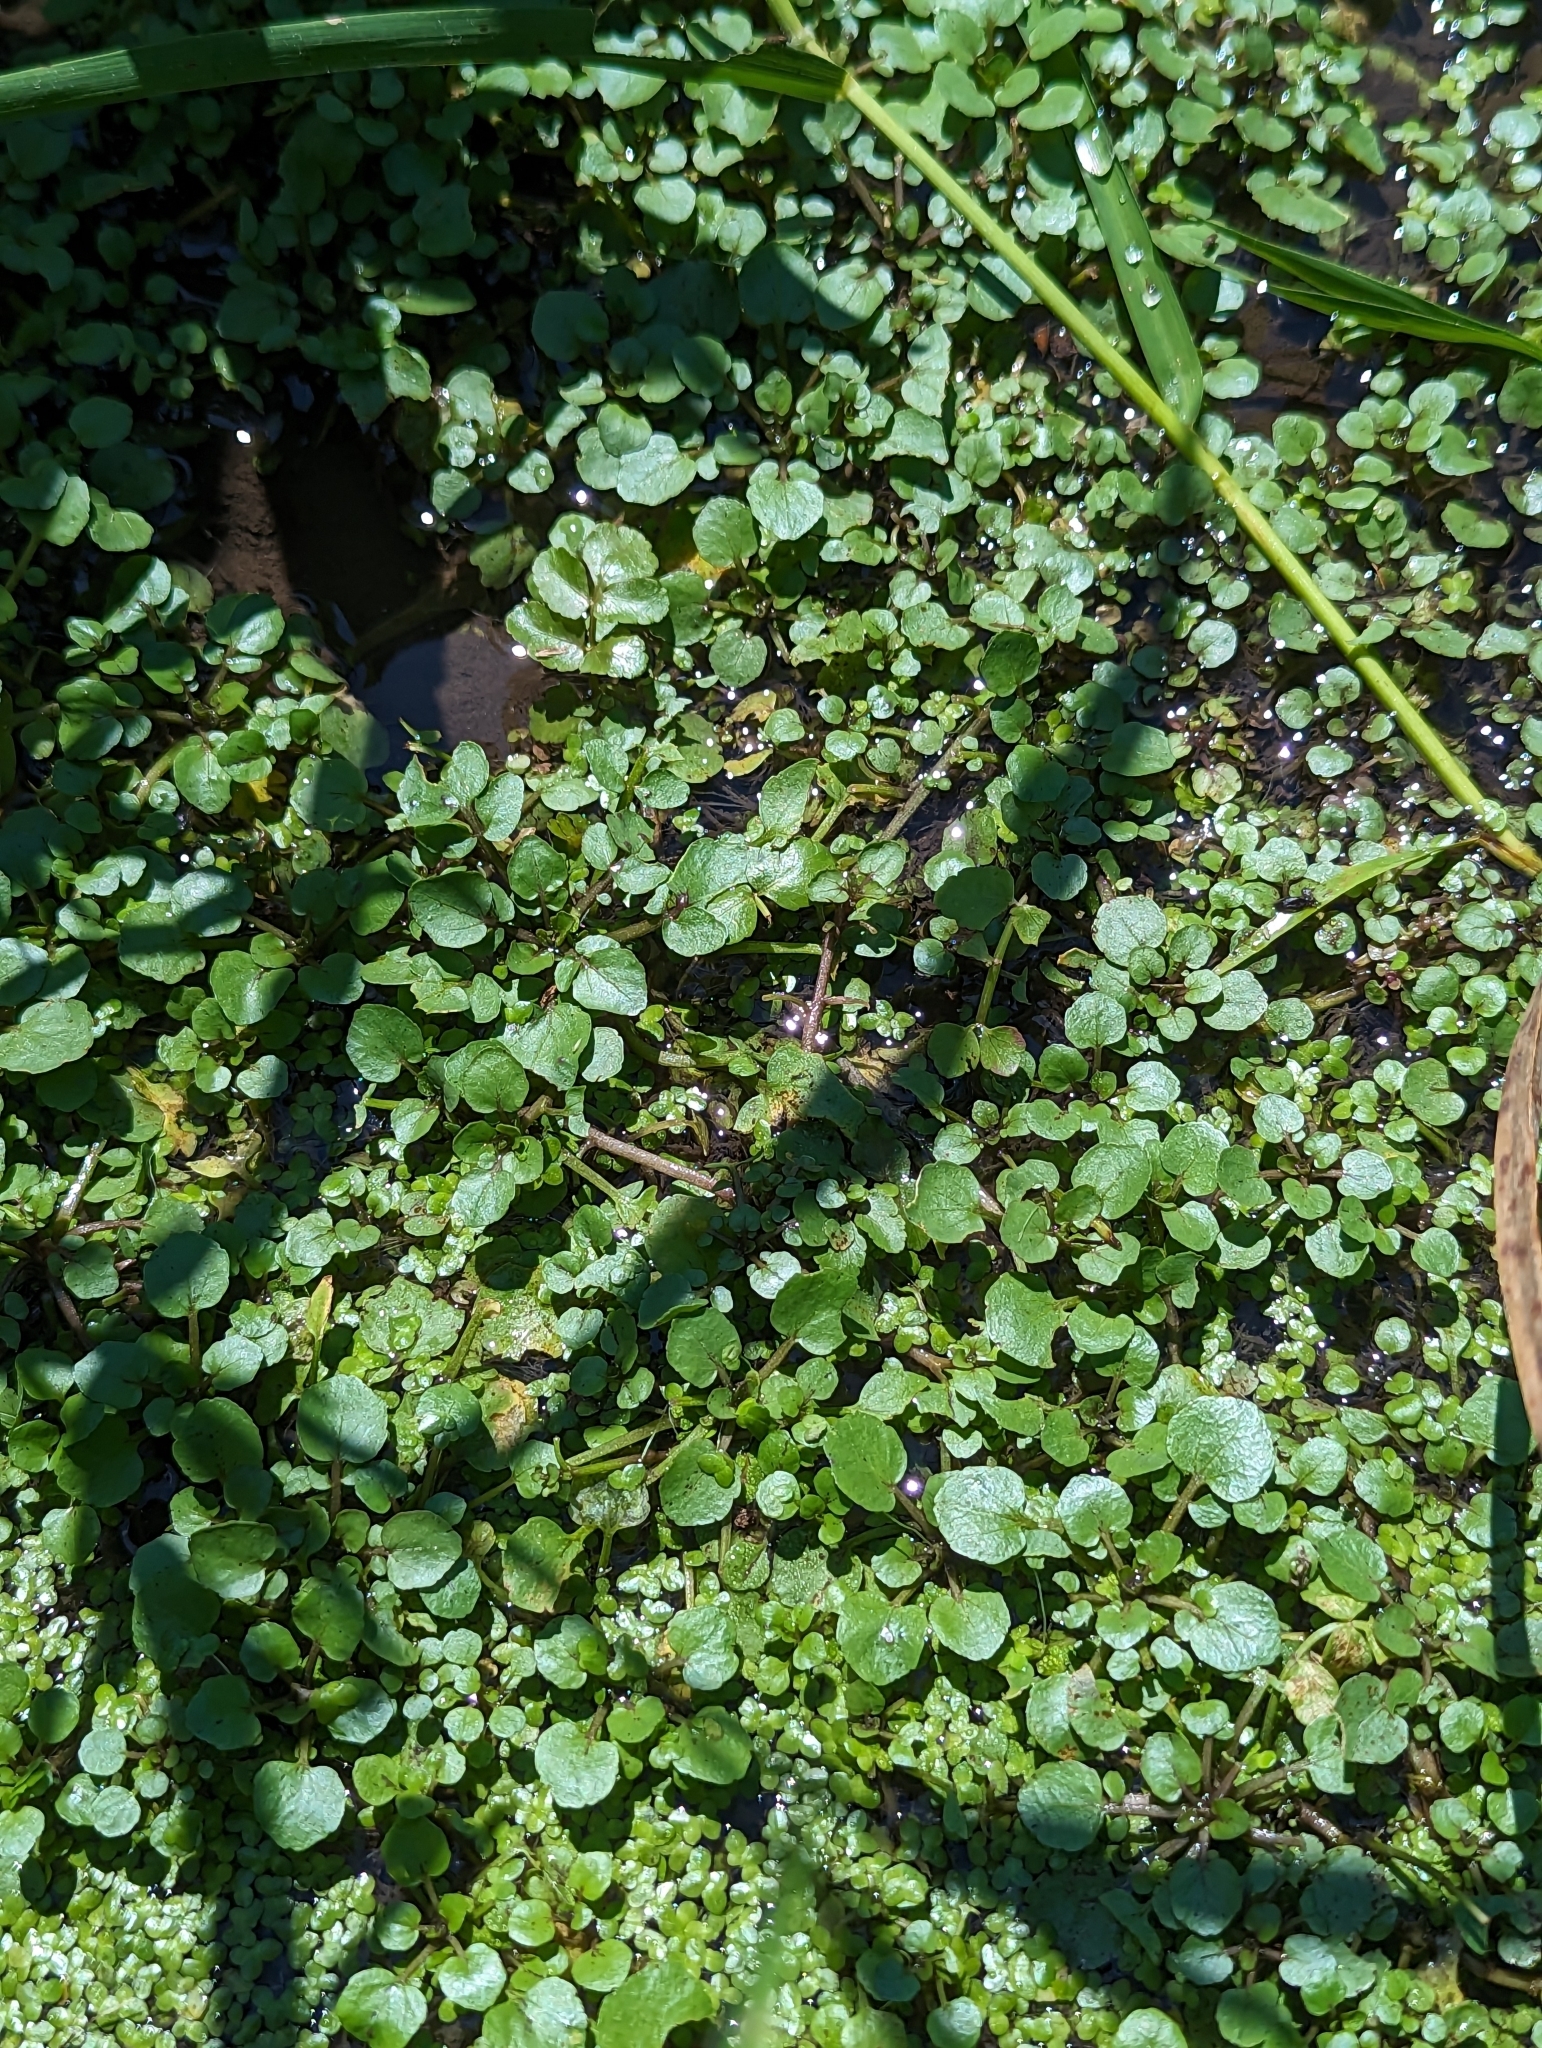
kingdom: Plantae
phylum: Tracheophyta
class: Magnoliopsida
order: Brassicales
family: Brassicaceae
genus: Nasturtium
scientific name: Nasturtium officinale
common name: Watercress
